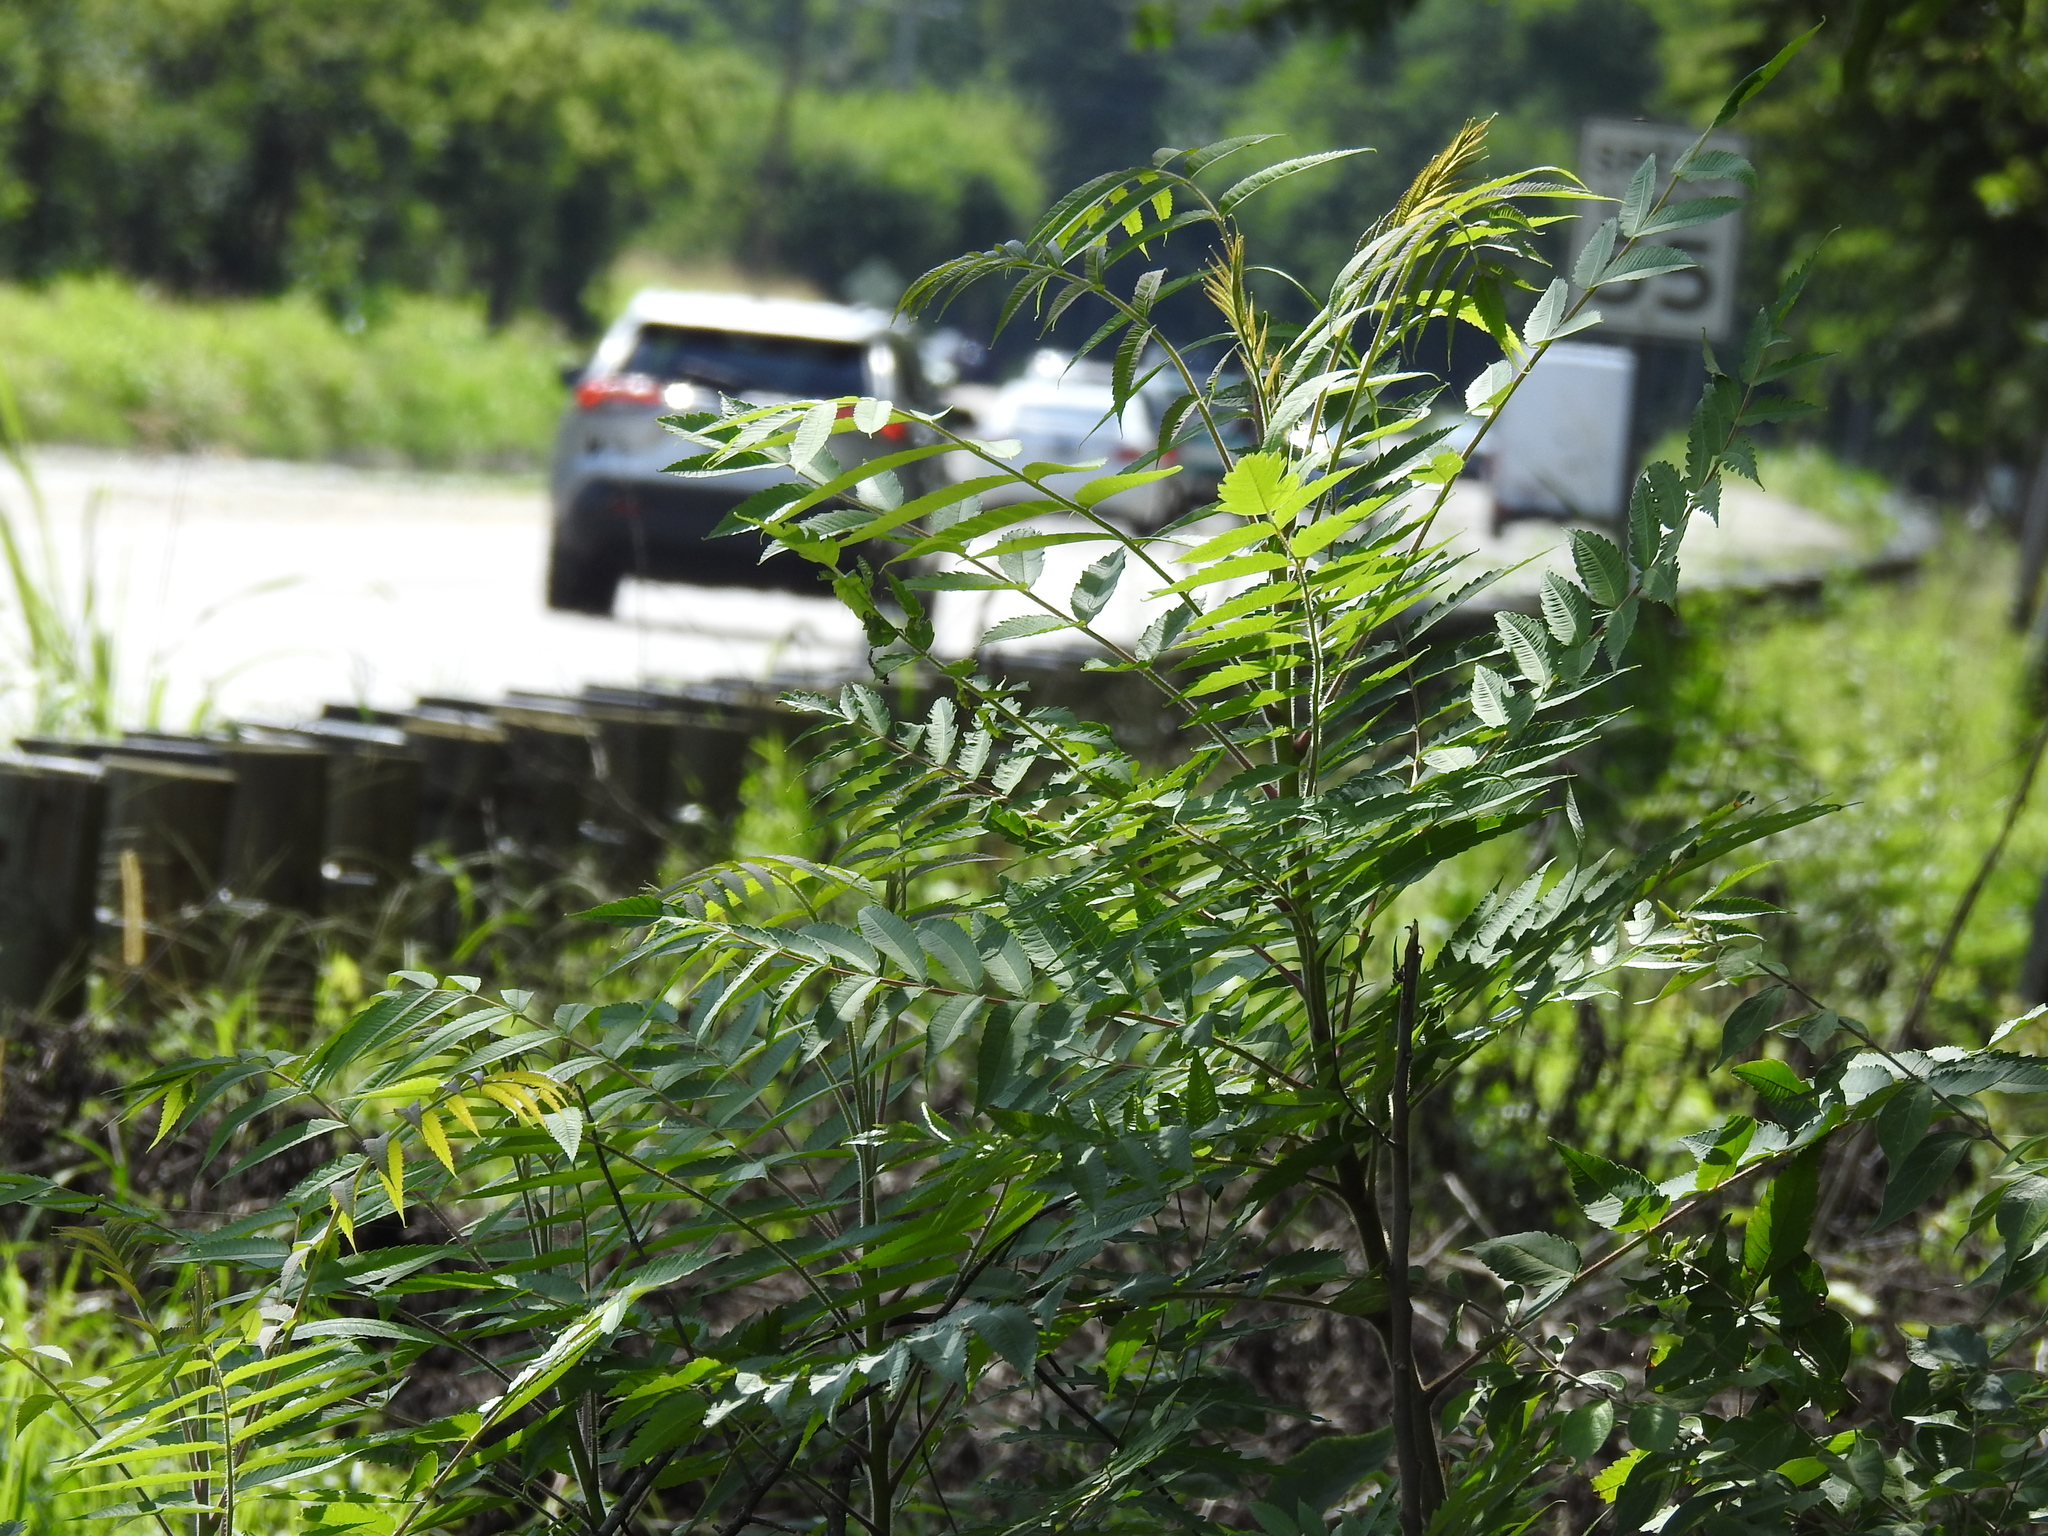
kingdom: Plantae
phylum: Tracheophyta
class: Magnoliopsida
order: Sapindales
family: Anacardiaceae
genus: Rhus
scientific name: Rhus typhina
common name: Staghorn sumac
